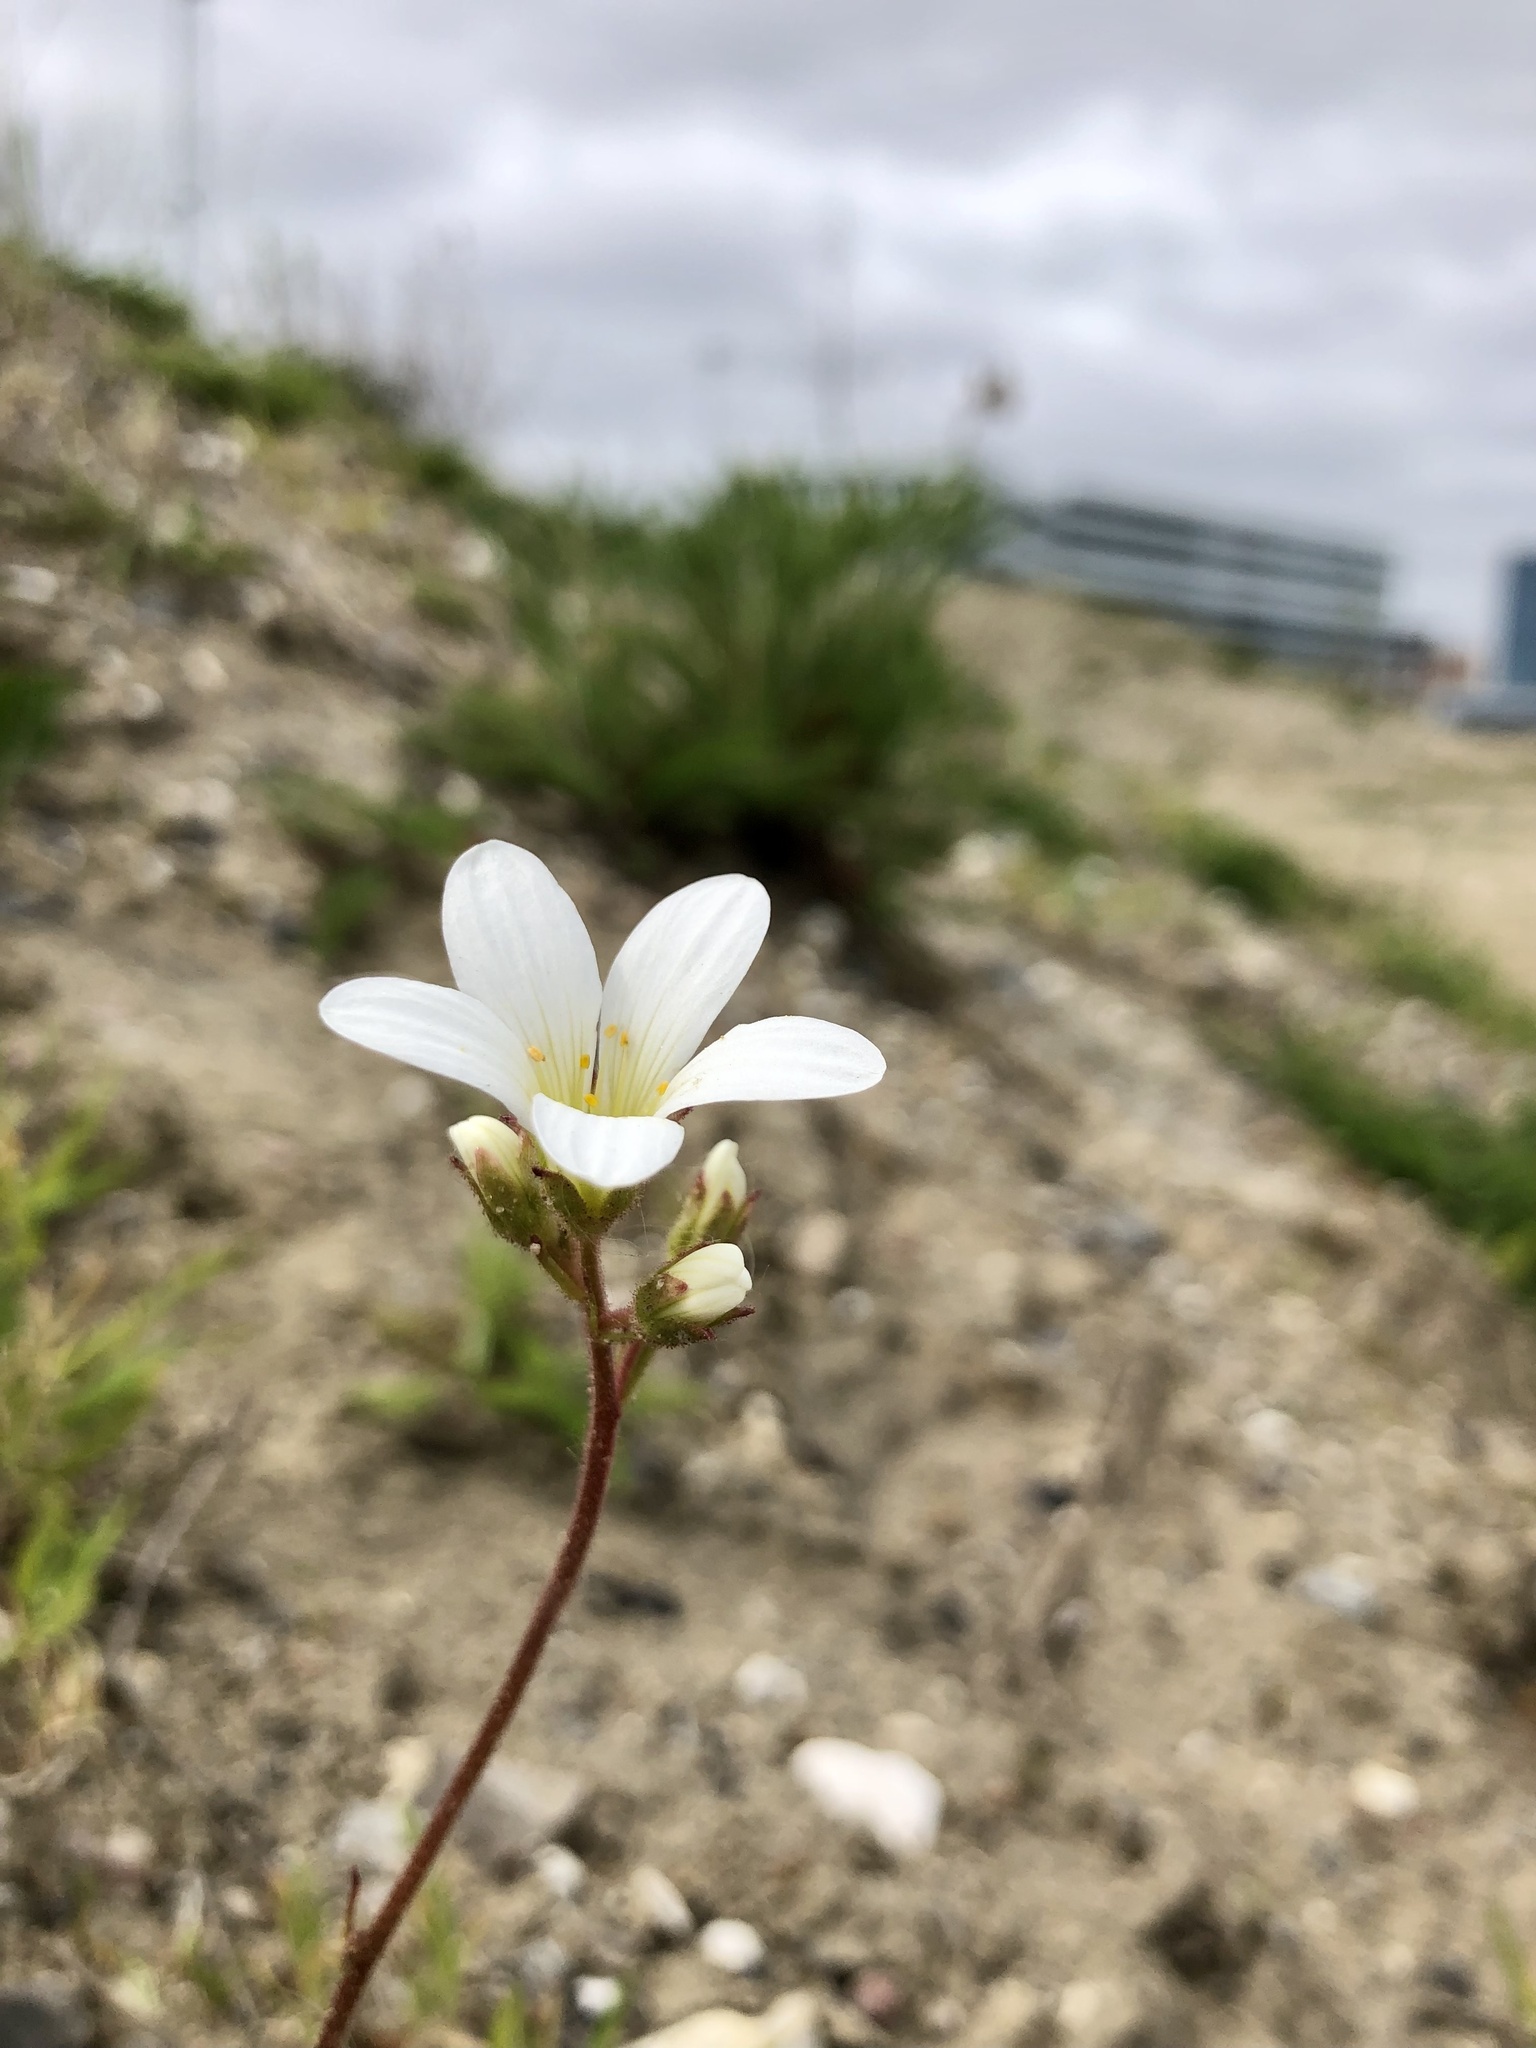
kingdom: Plantae
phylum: Tracheophyta
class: Magnoliopsida
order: Saxifragales
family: Saxifragaceae
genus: Saxifraga
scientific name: Saxifraga granulata
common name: Meadow saxifrage
